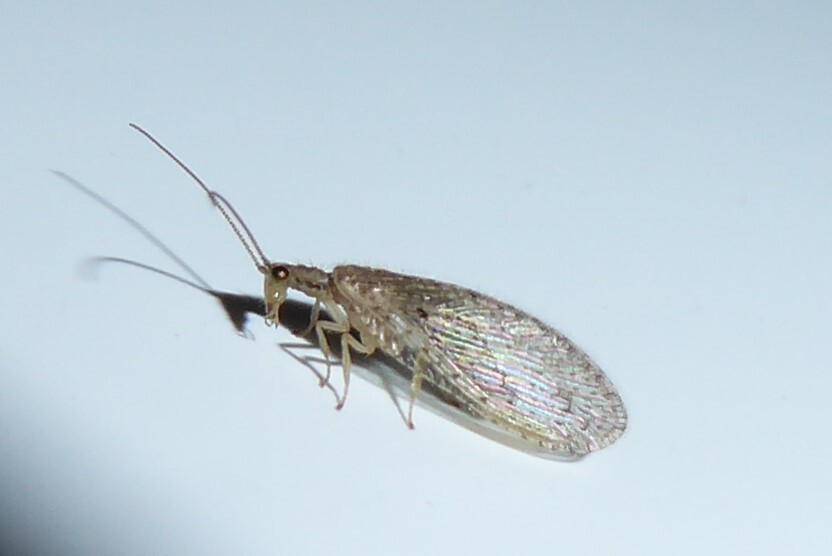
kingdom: Animalia
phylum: Arthropoda
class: Insecta
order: Neuroptera
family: Hemerobiidae
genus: Micromus
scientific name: Micromus tasmaniae
